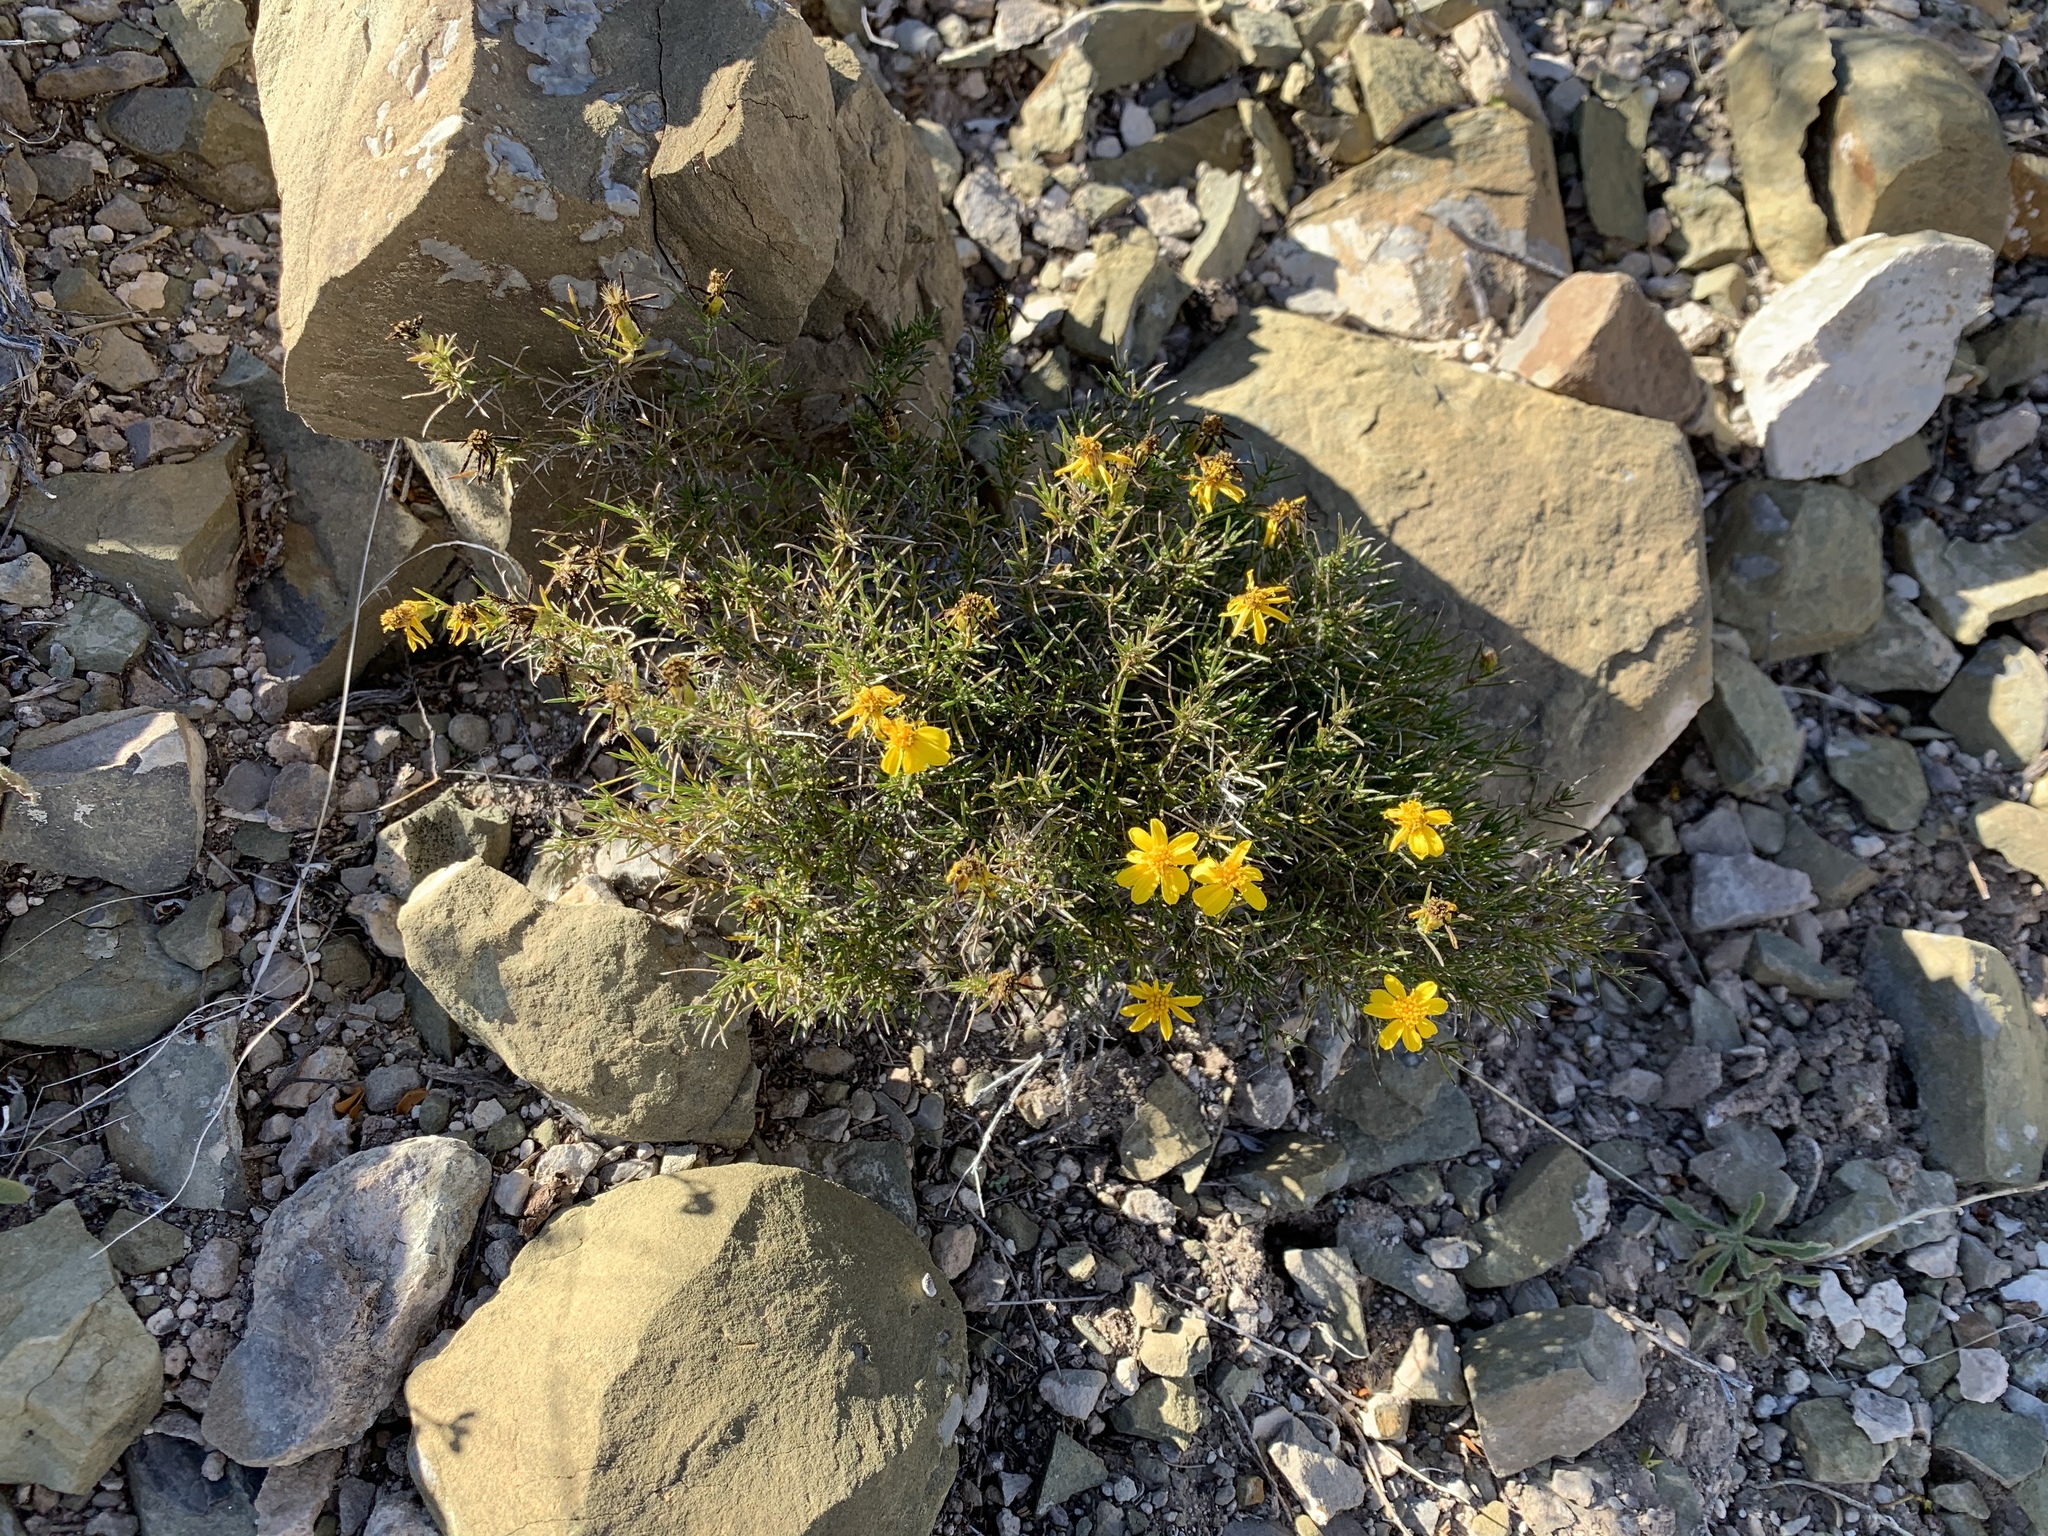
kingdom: Plantae
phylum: Tracheophyta
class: Magnoliopsida
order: Asterales
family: Asteraceae
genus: Thymophylla
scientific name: Thymophylla acerosa
